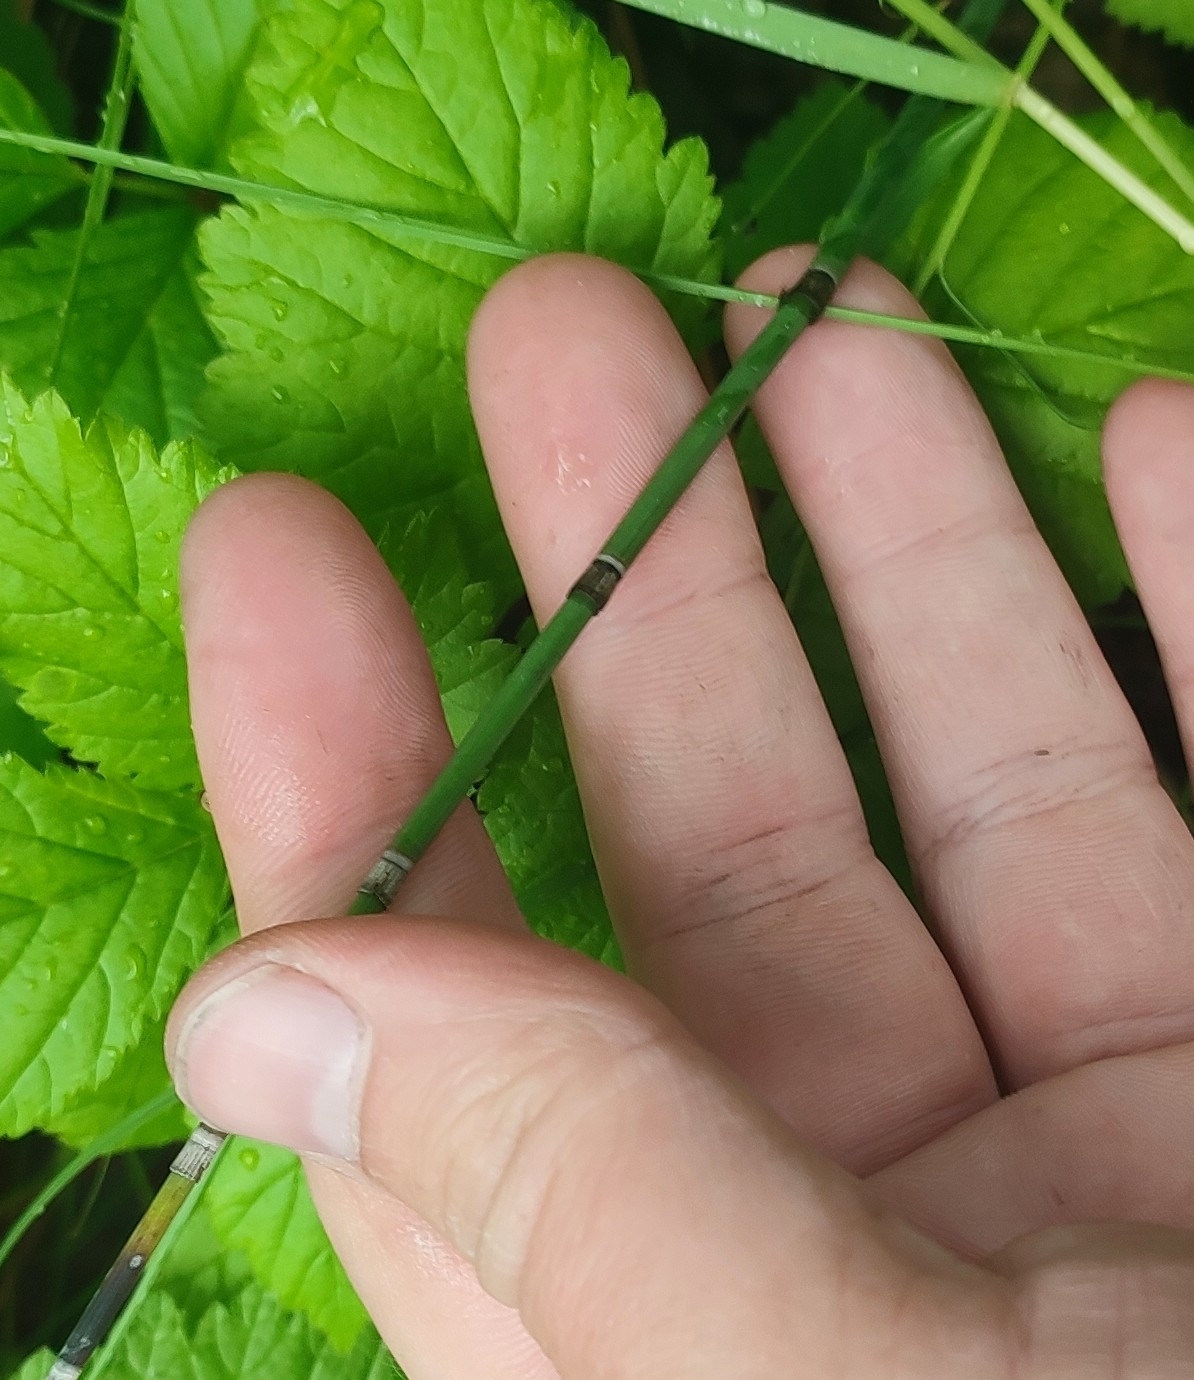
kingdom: Plantae
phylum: Tracheophyta
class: Polypodiopsida
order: Equisetales
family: Equisetaceae
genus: Equisetum
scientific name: Equisetum hyemale
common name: Rough horsetail
